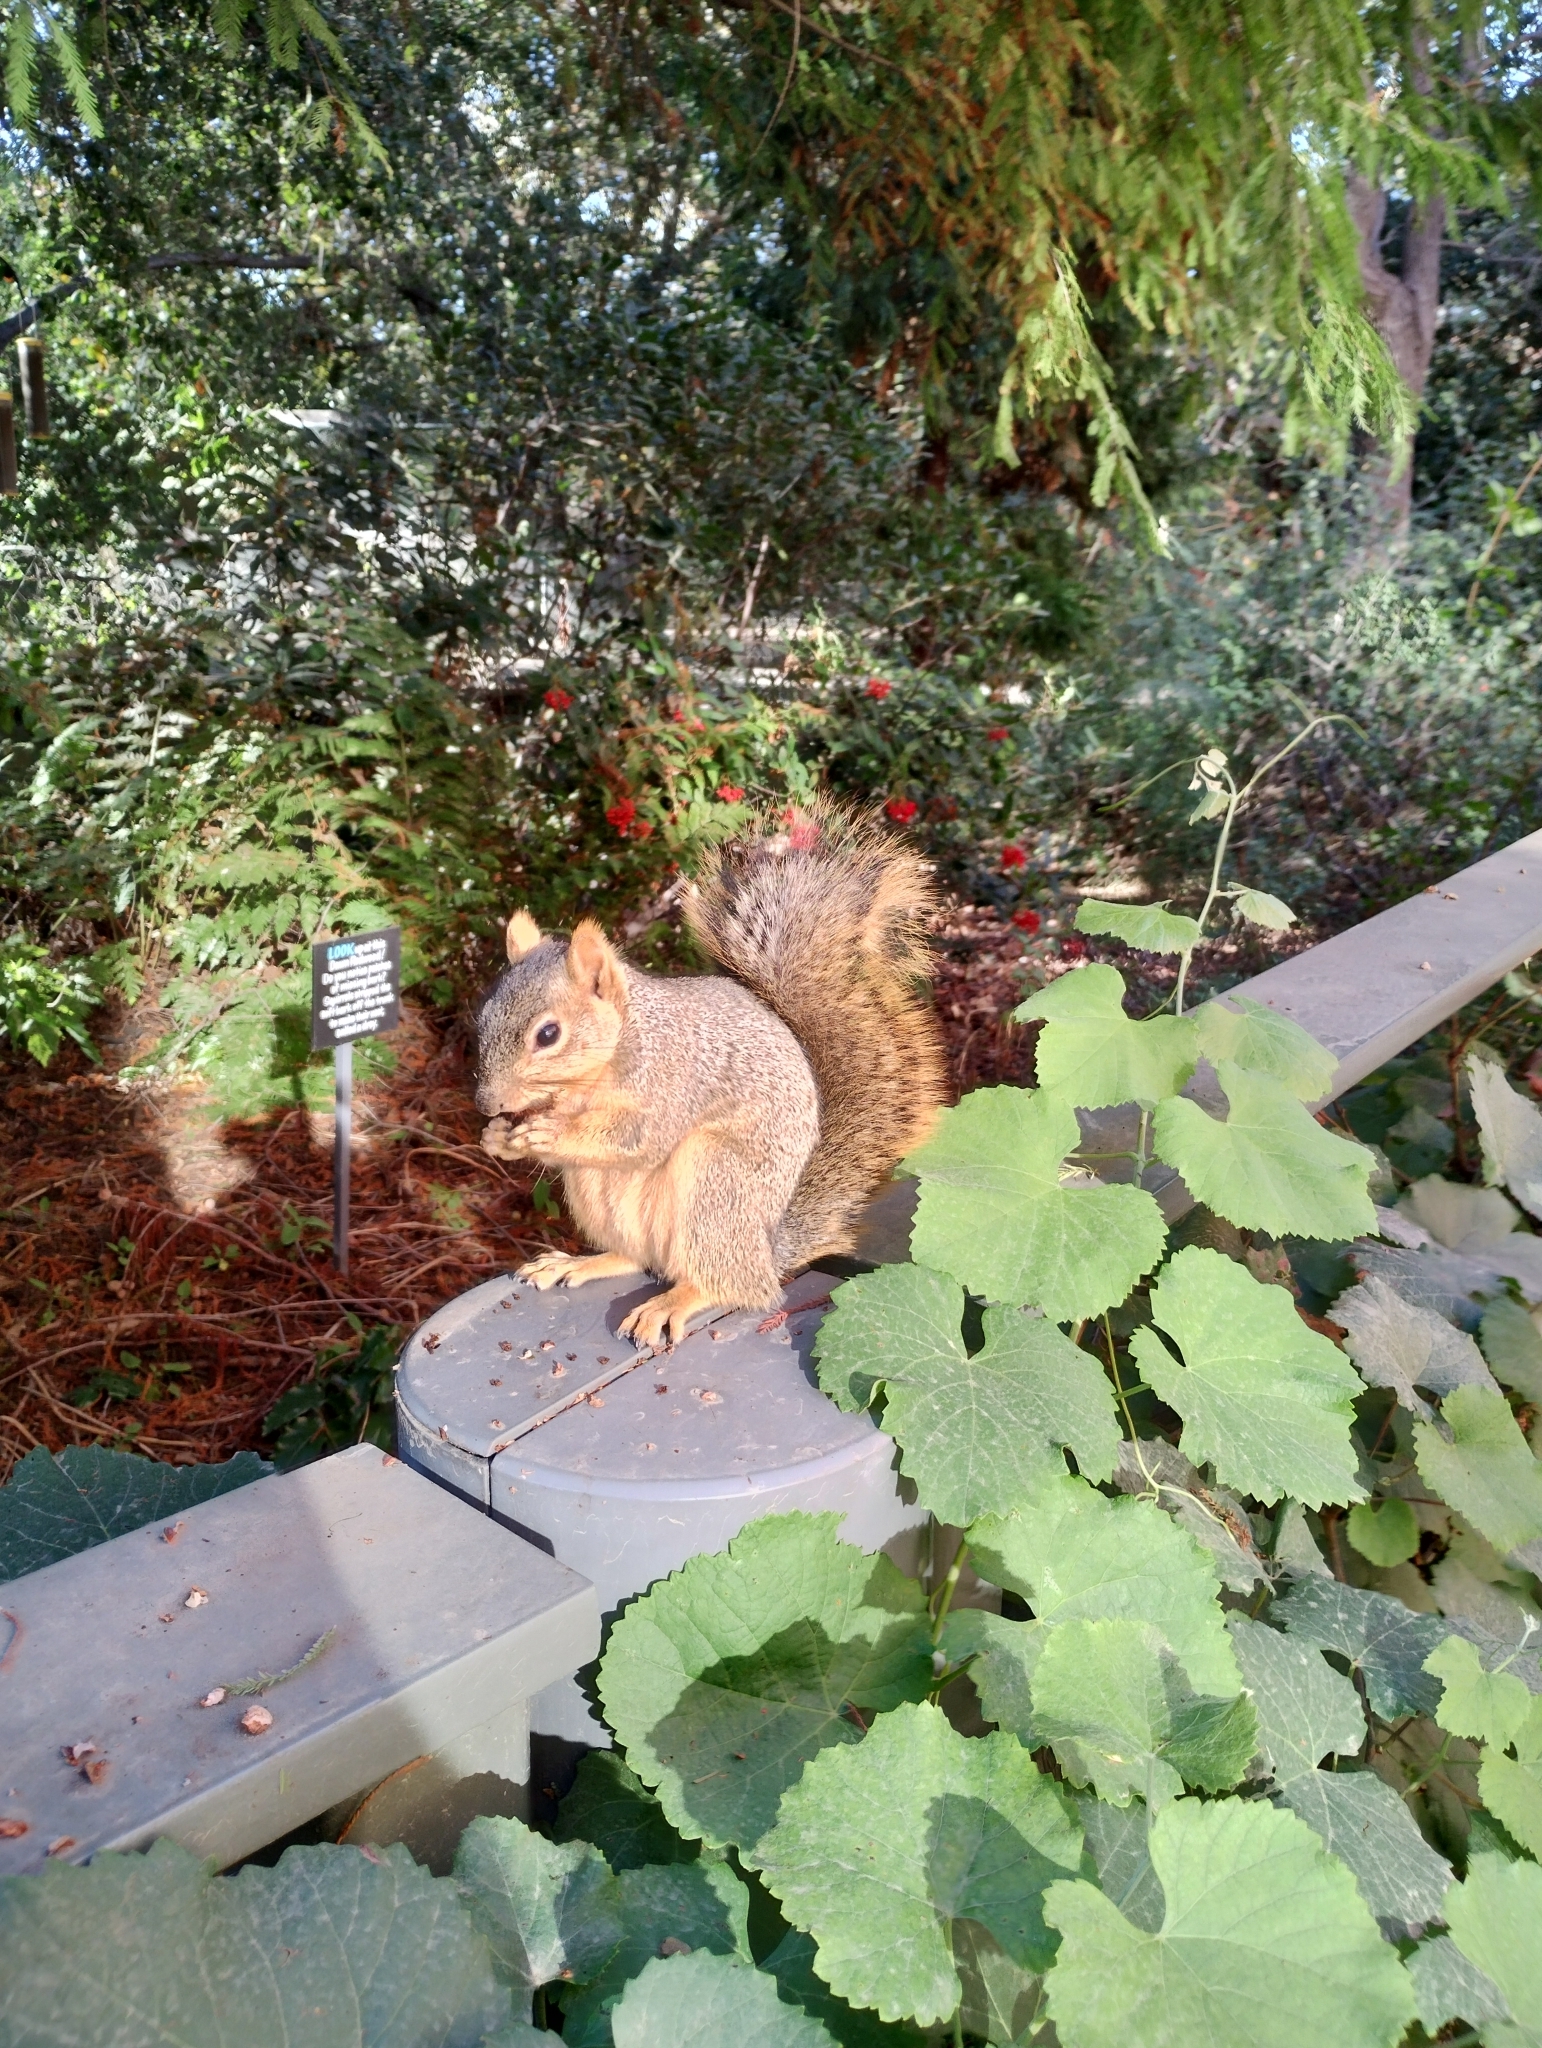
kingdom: Animalia
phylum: Chordata
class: Mammalia
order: Rodentia
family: Sciuridae
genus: Sciurus
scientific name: Sciurus niger
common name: Fox squirrel
